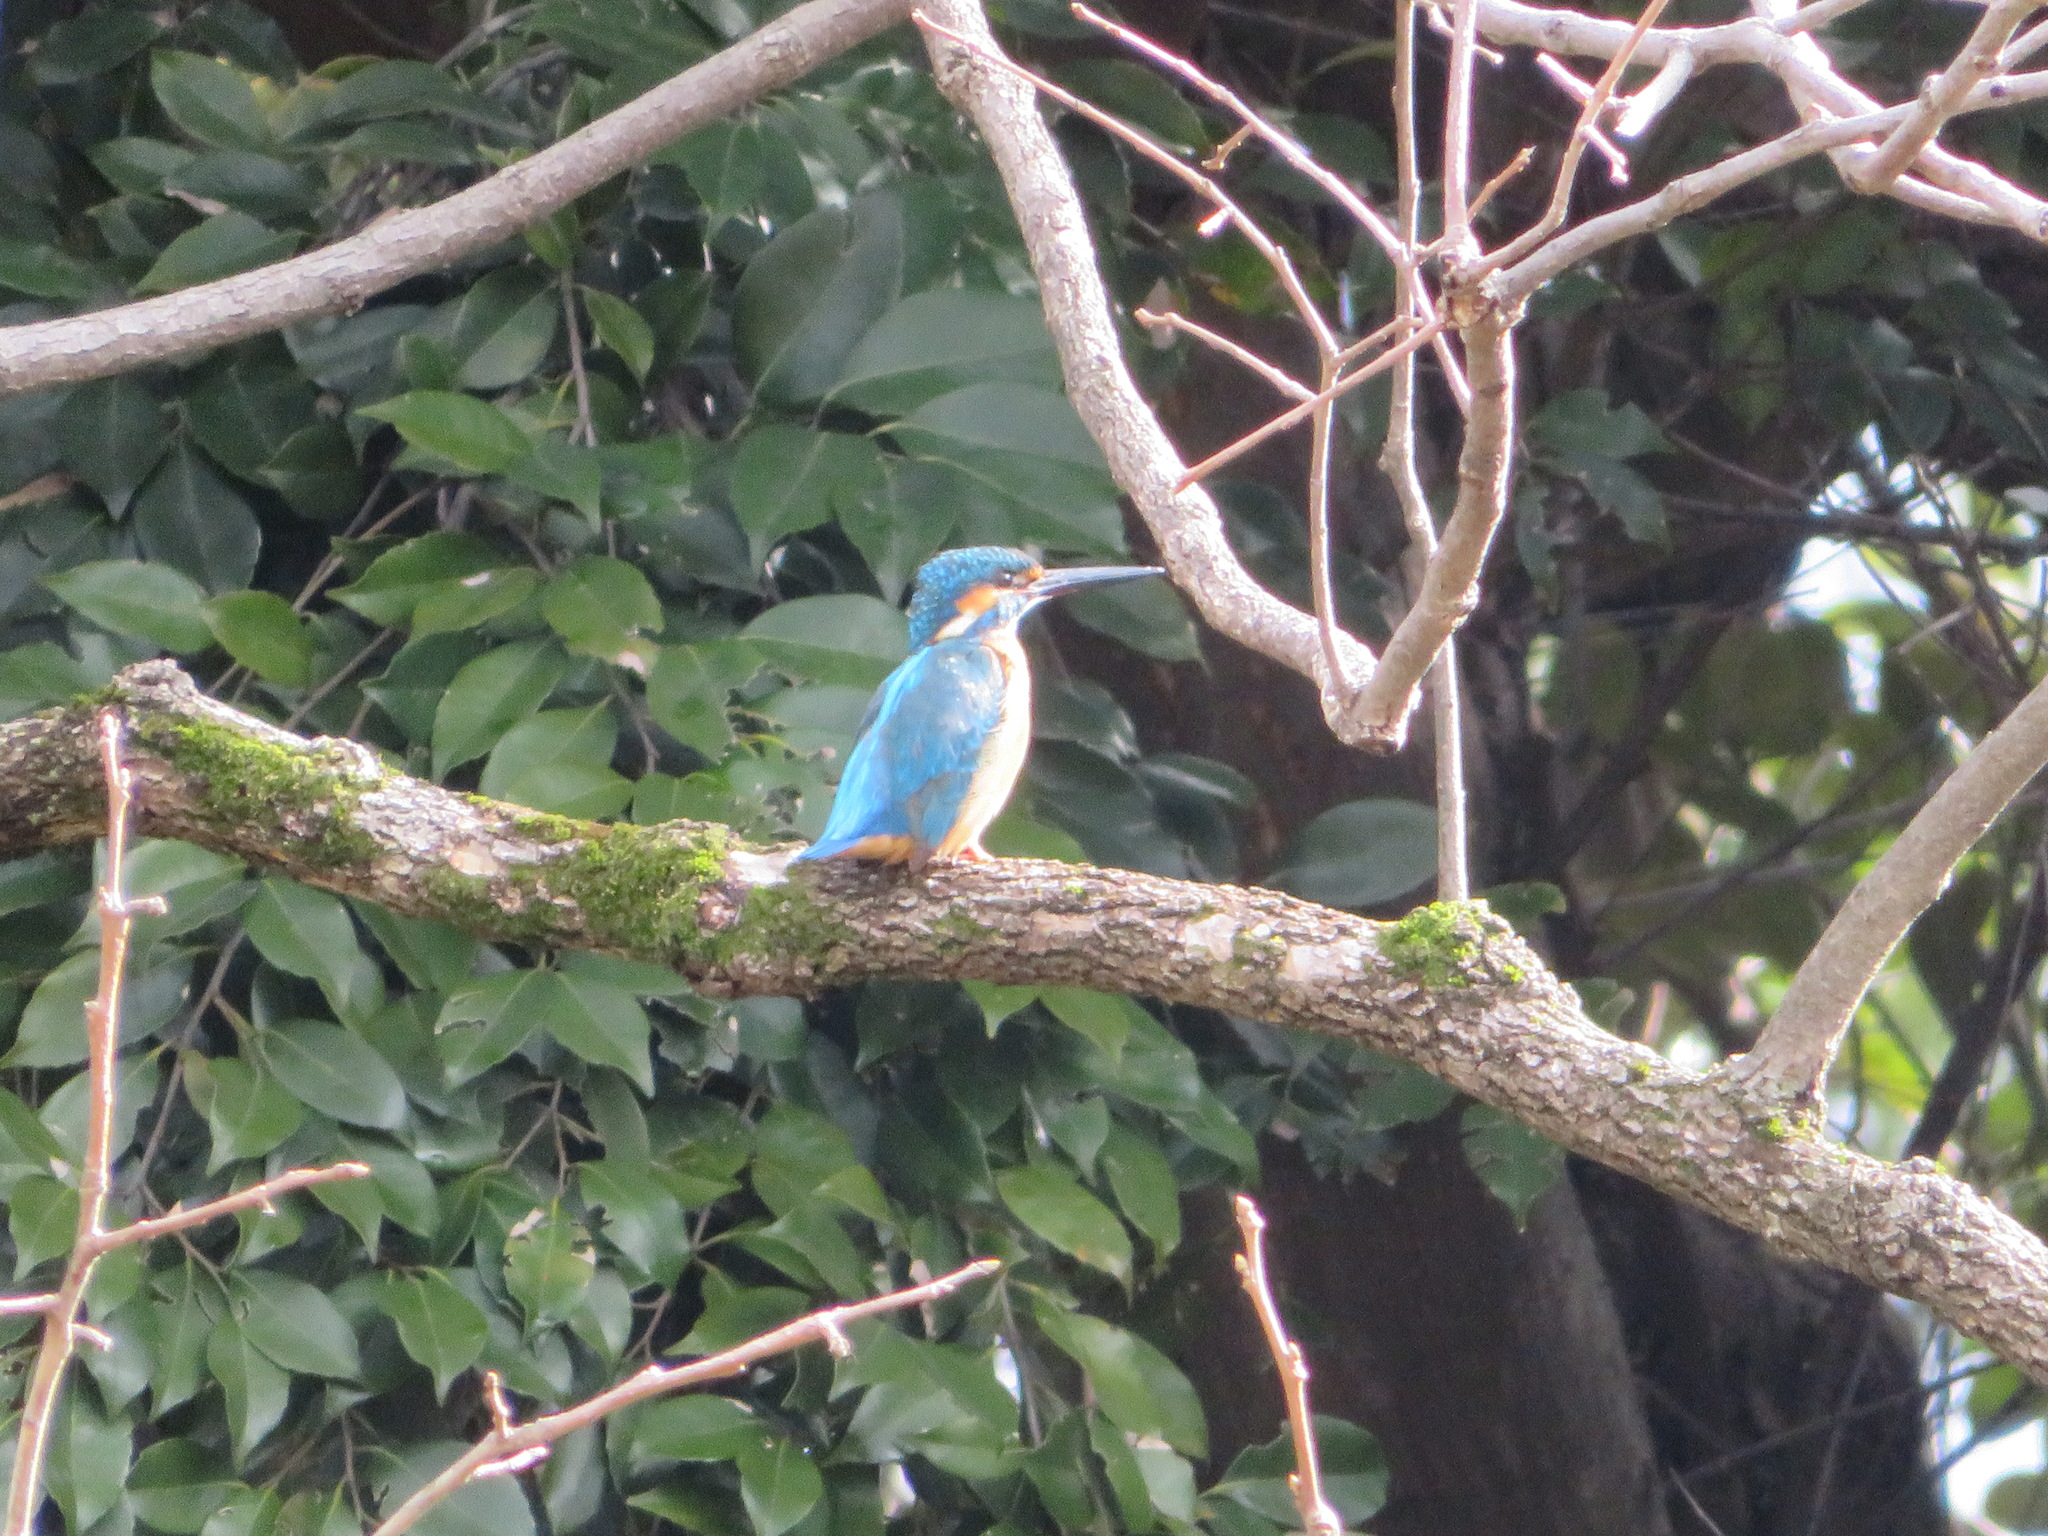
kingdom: Animalia
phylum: Chordata
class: Aves
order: Coraciiformes
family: Alcedinidae
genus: Alcedo
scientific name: Alcedo atthis
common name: Common kingfisher
